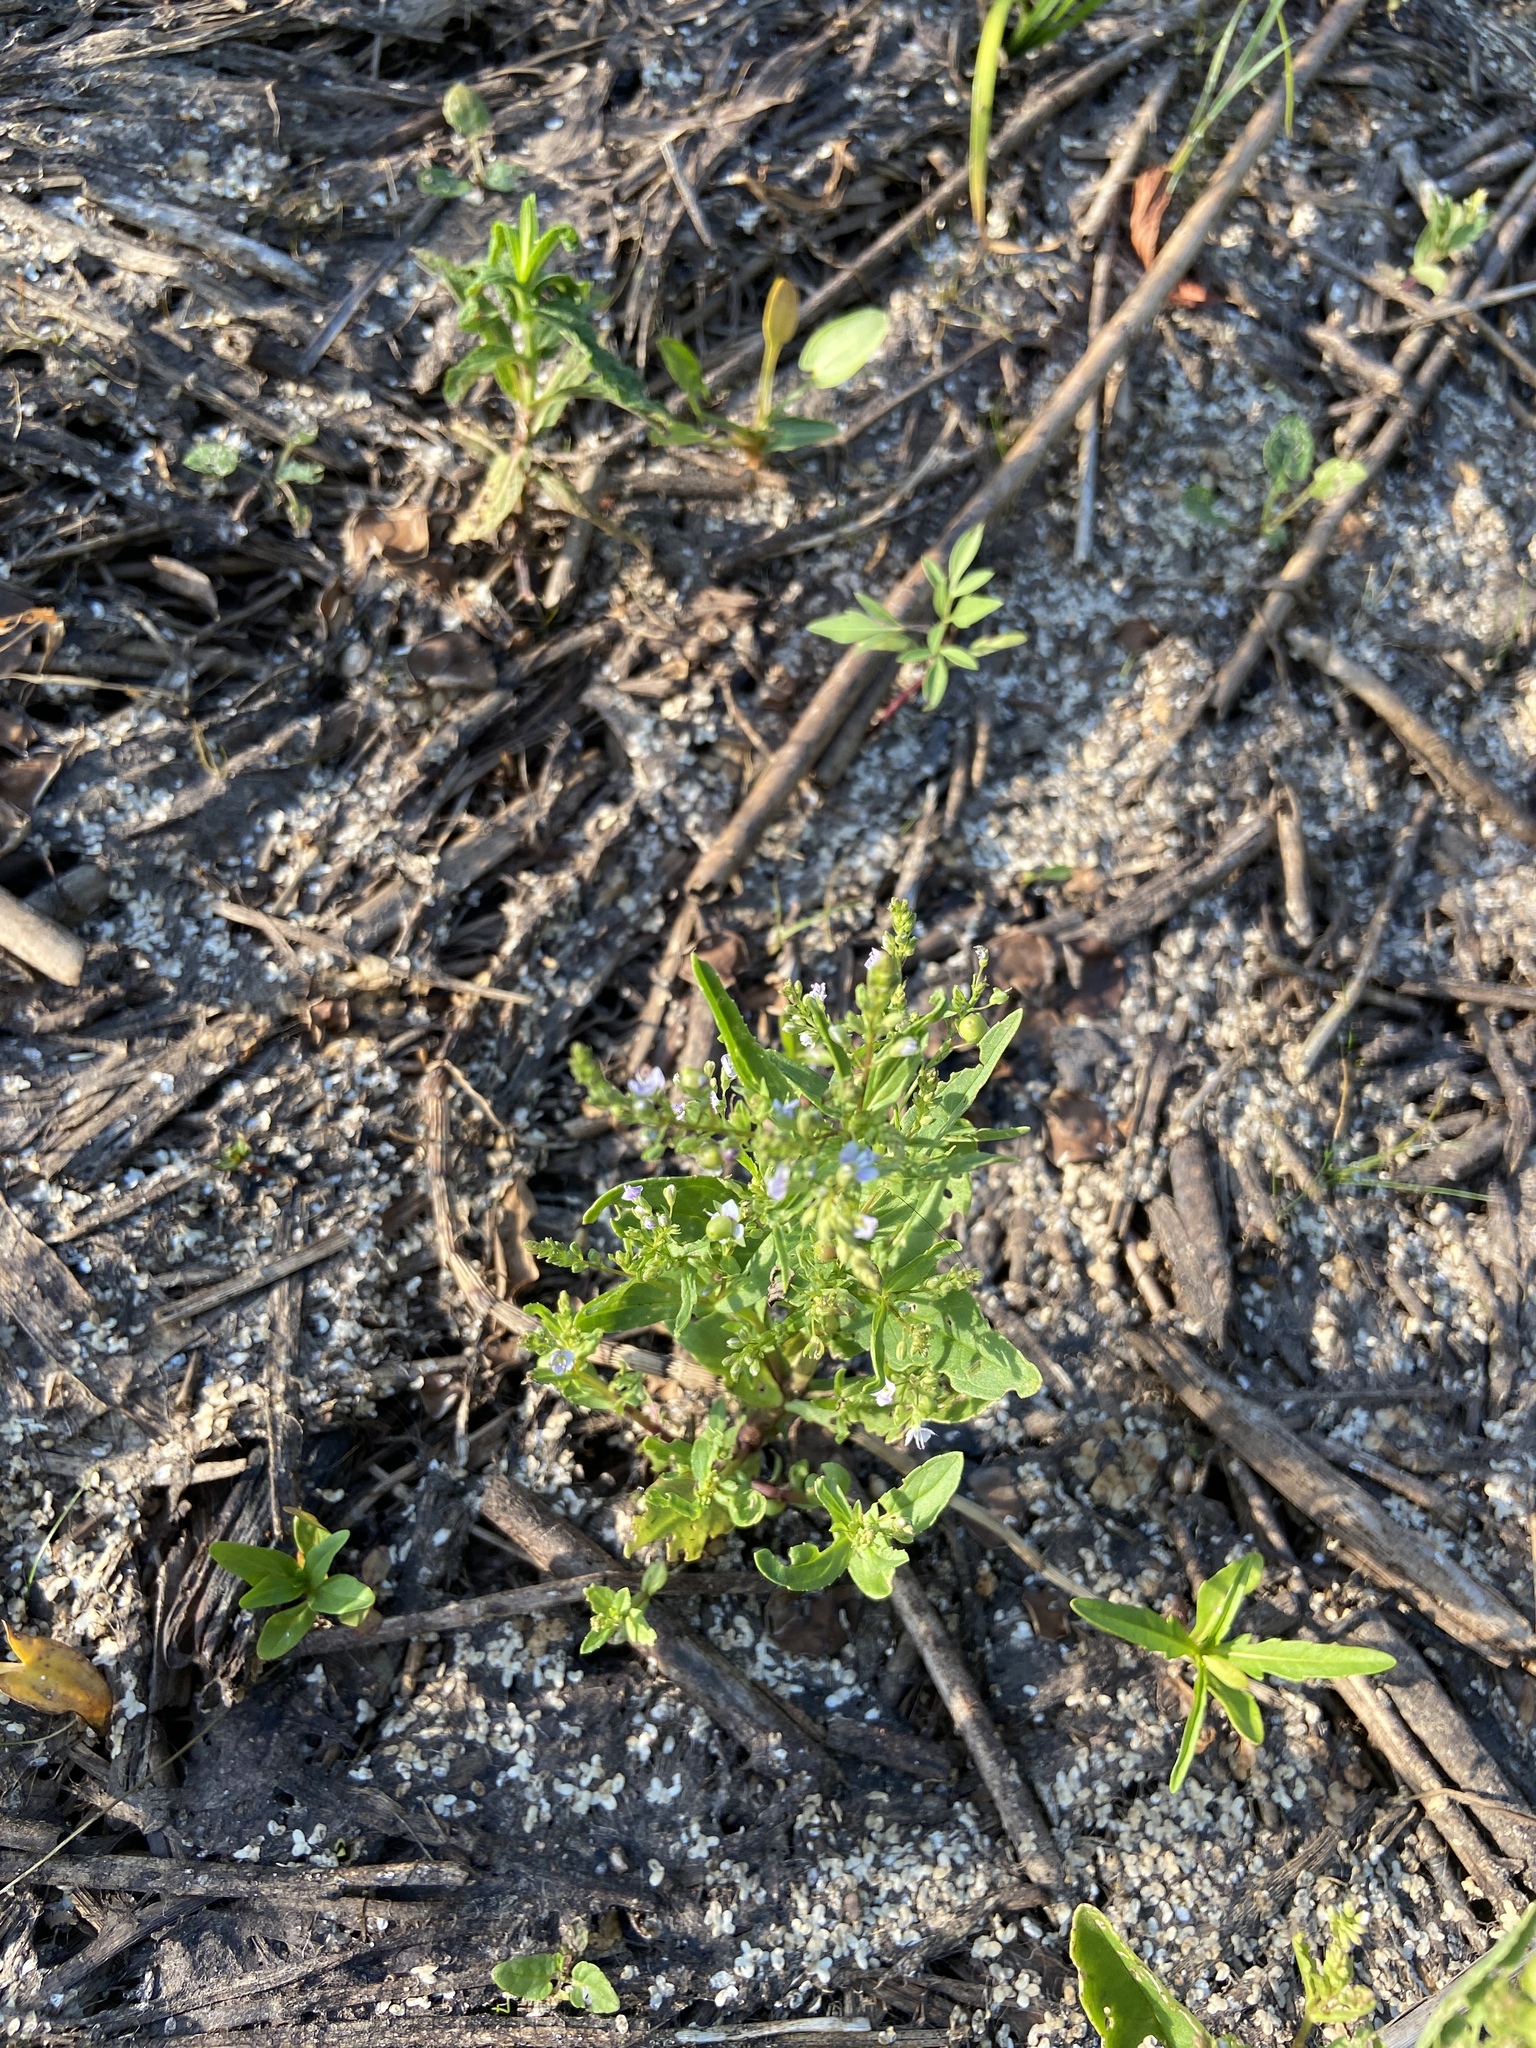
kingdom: Plantae
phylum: Tracheophyta
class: Magnoliopsida
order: Lamiales
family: Plantaginaceae
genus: Veronica
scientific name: Veronica anagallis-aquatica
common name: Water speedwell
